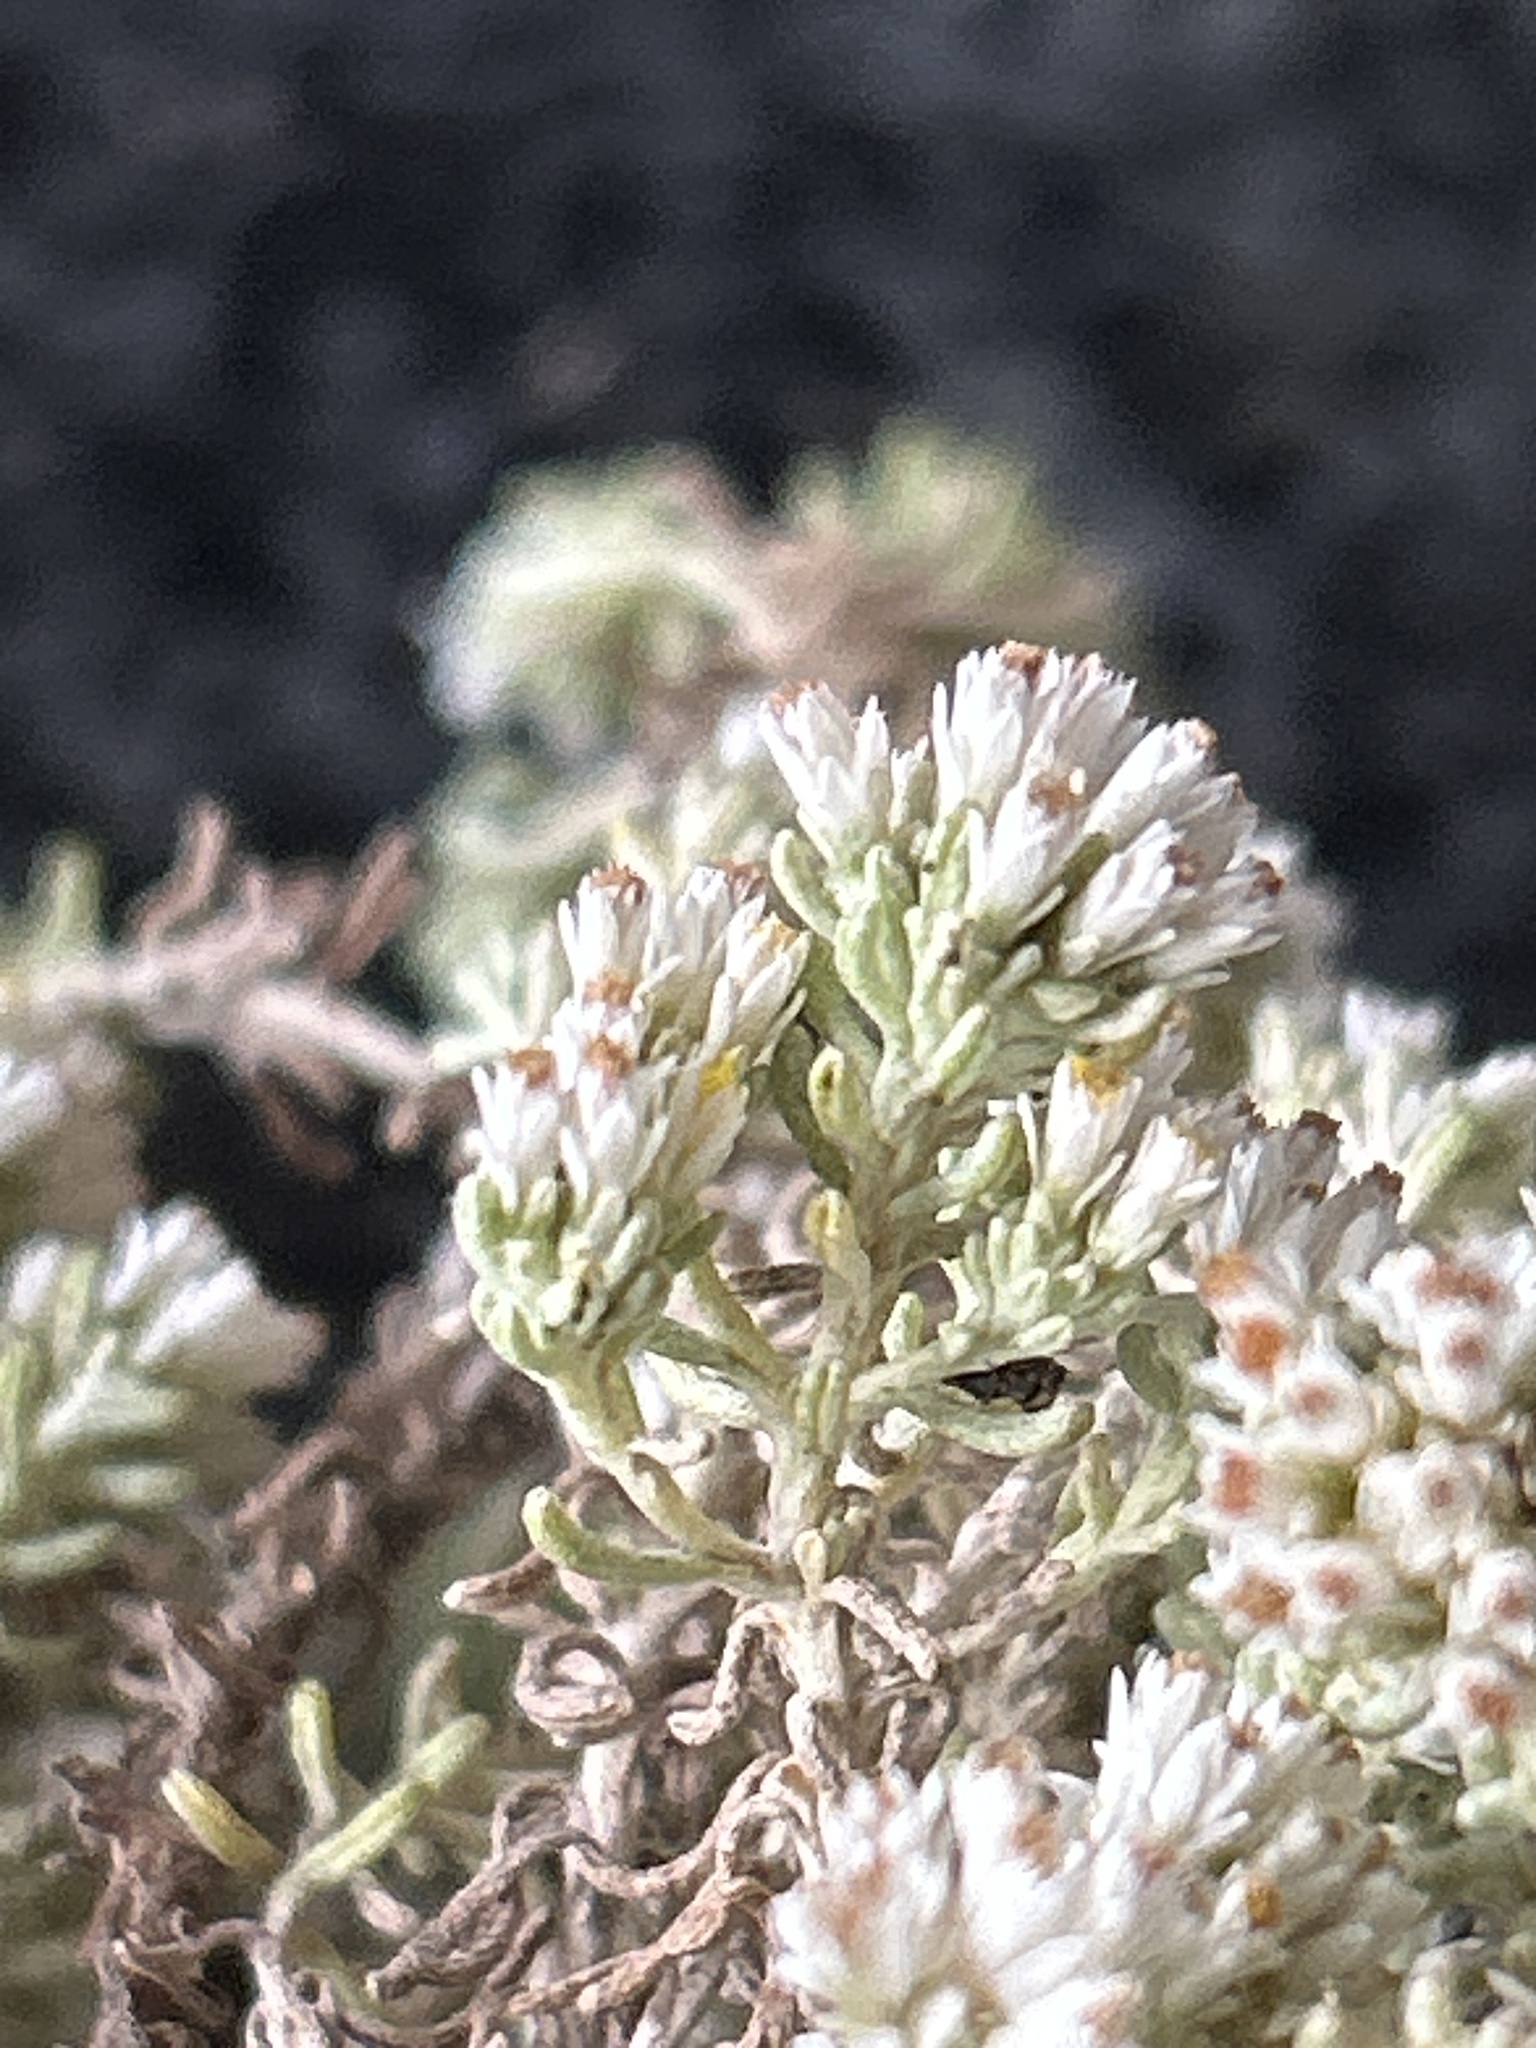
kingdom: Plantae
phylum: Tracheophyta
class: Magnoliopsida
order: Asterales
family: Asteraceae
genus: Helichrysum
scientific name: Helichrysum niveum
